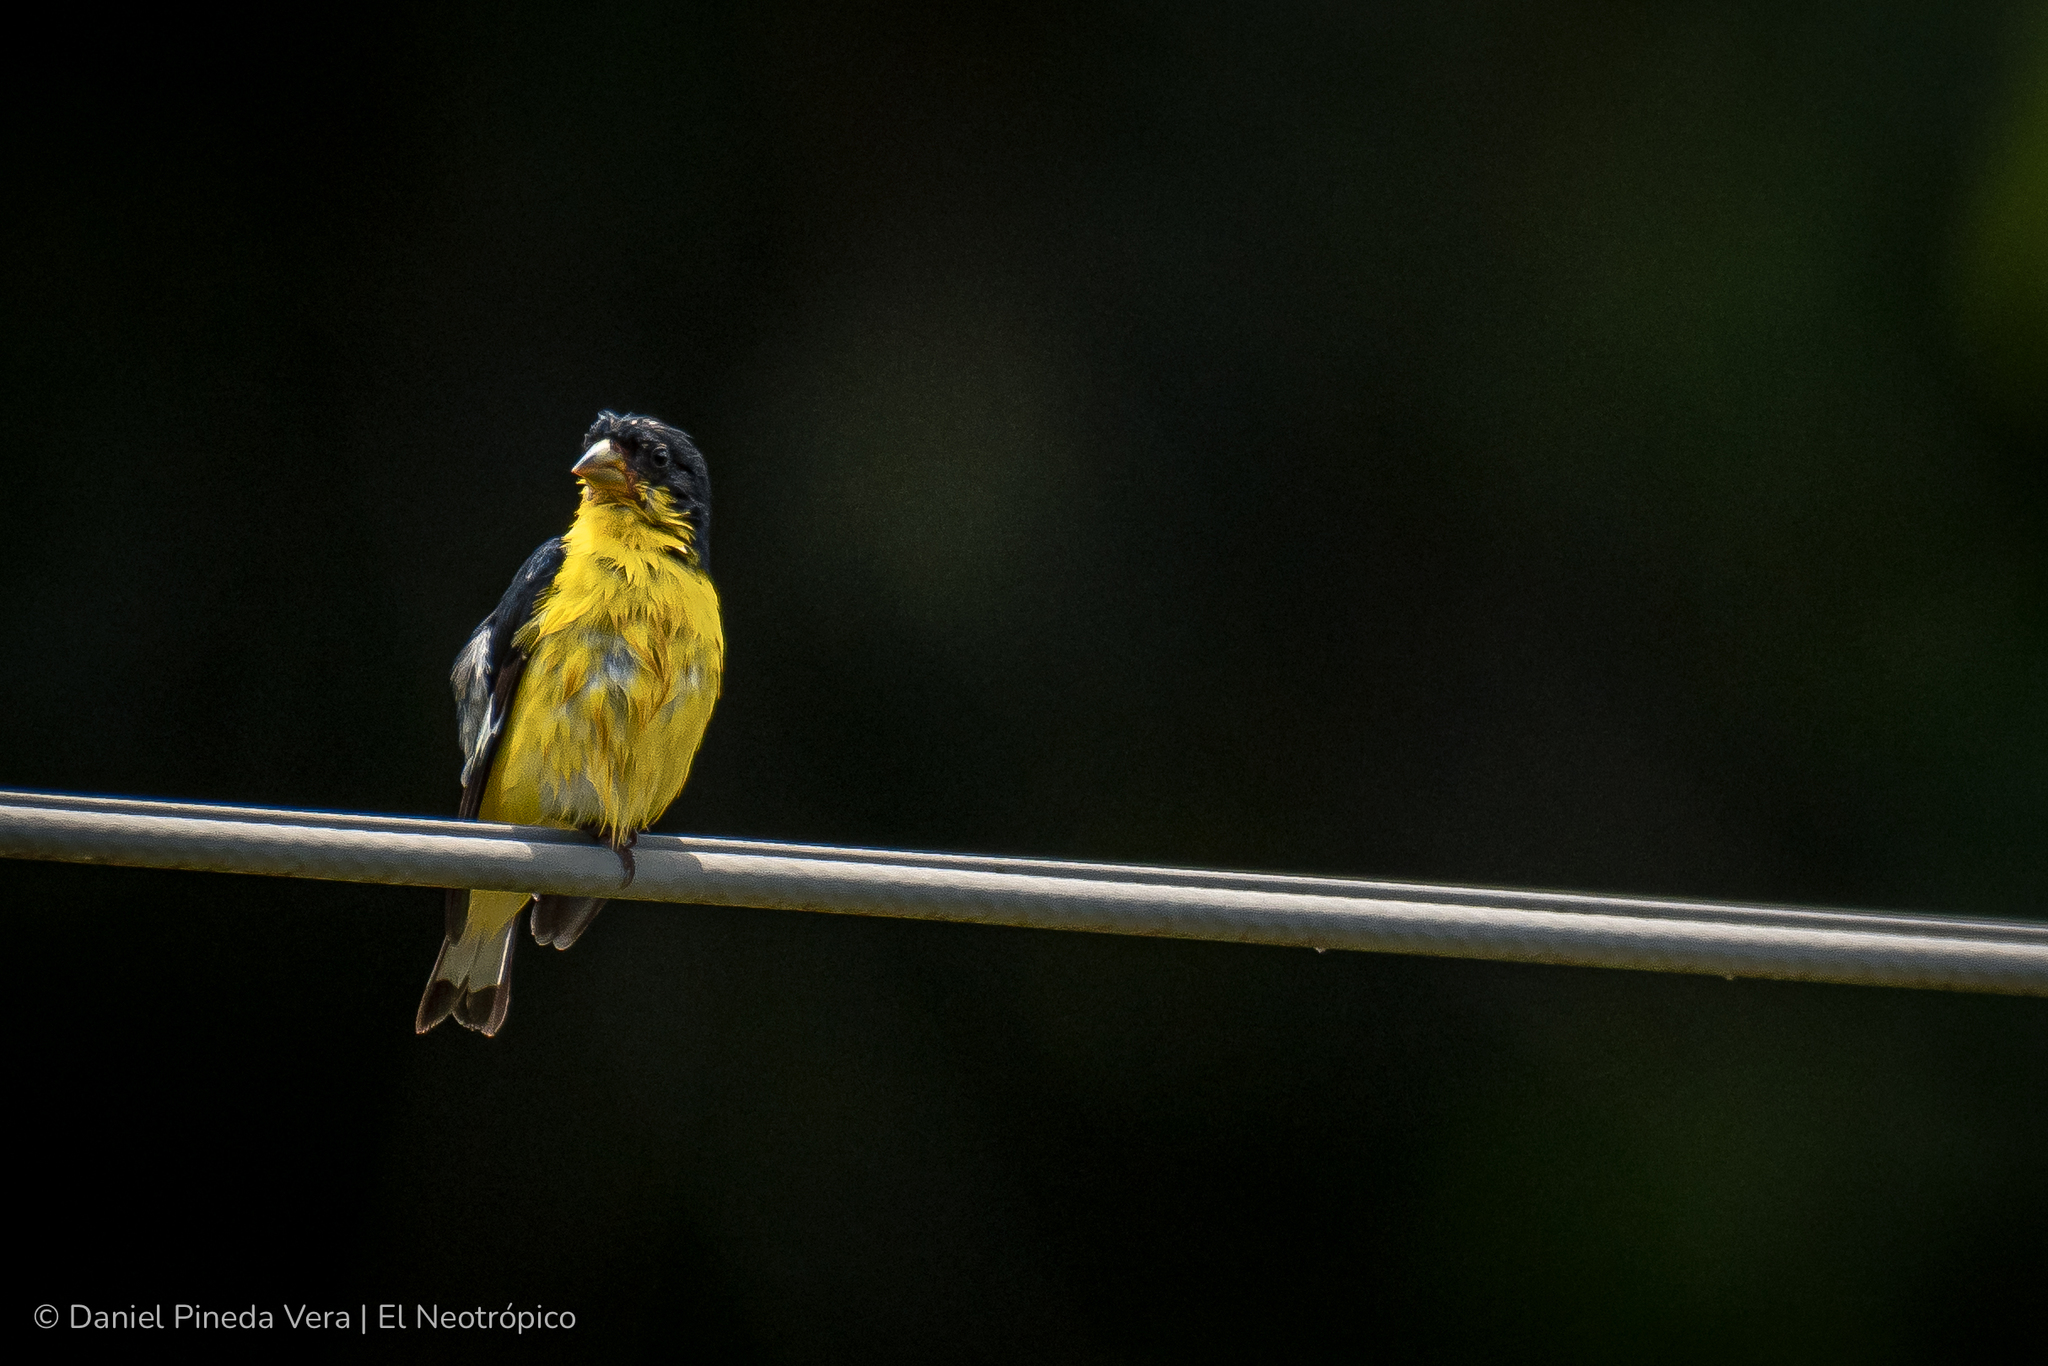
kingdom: Animalia
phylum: Chordata
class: Aves
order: Passeriformes
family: Fringillidae
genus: Spinus
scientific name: Spinus psaltria
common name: Lesser goldfinch
